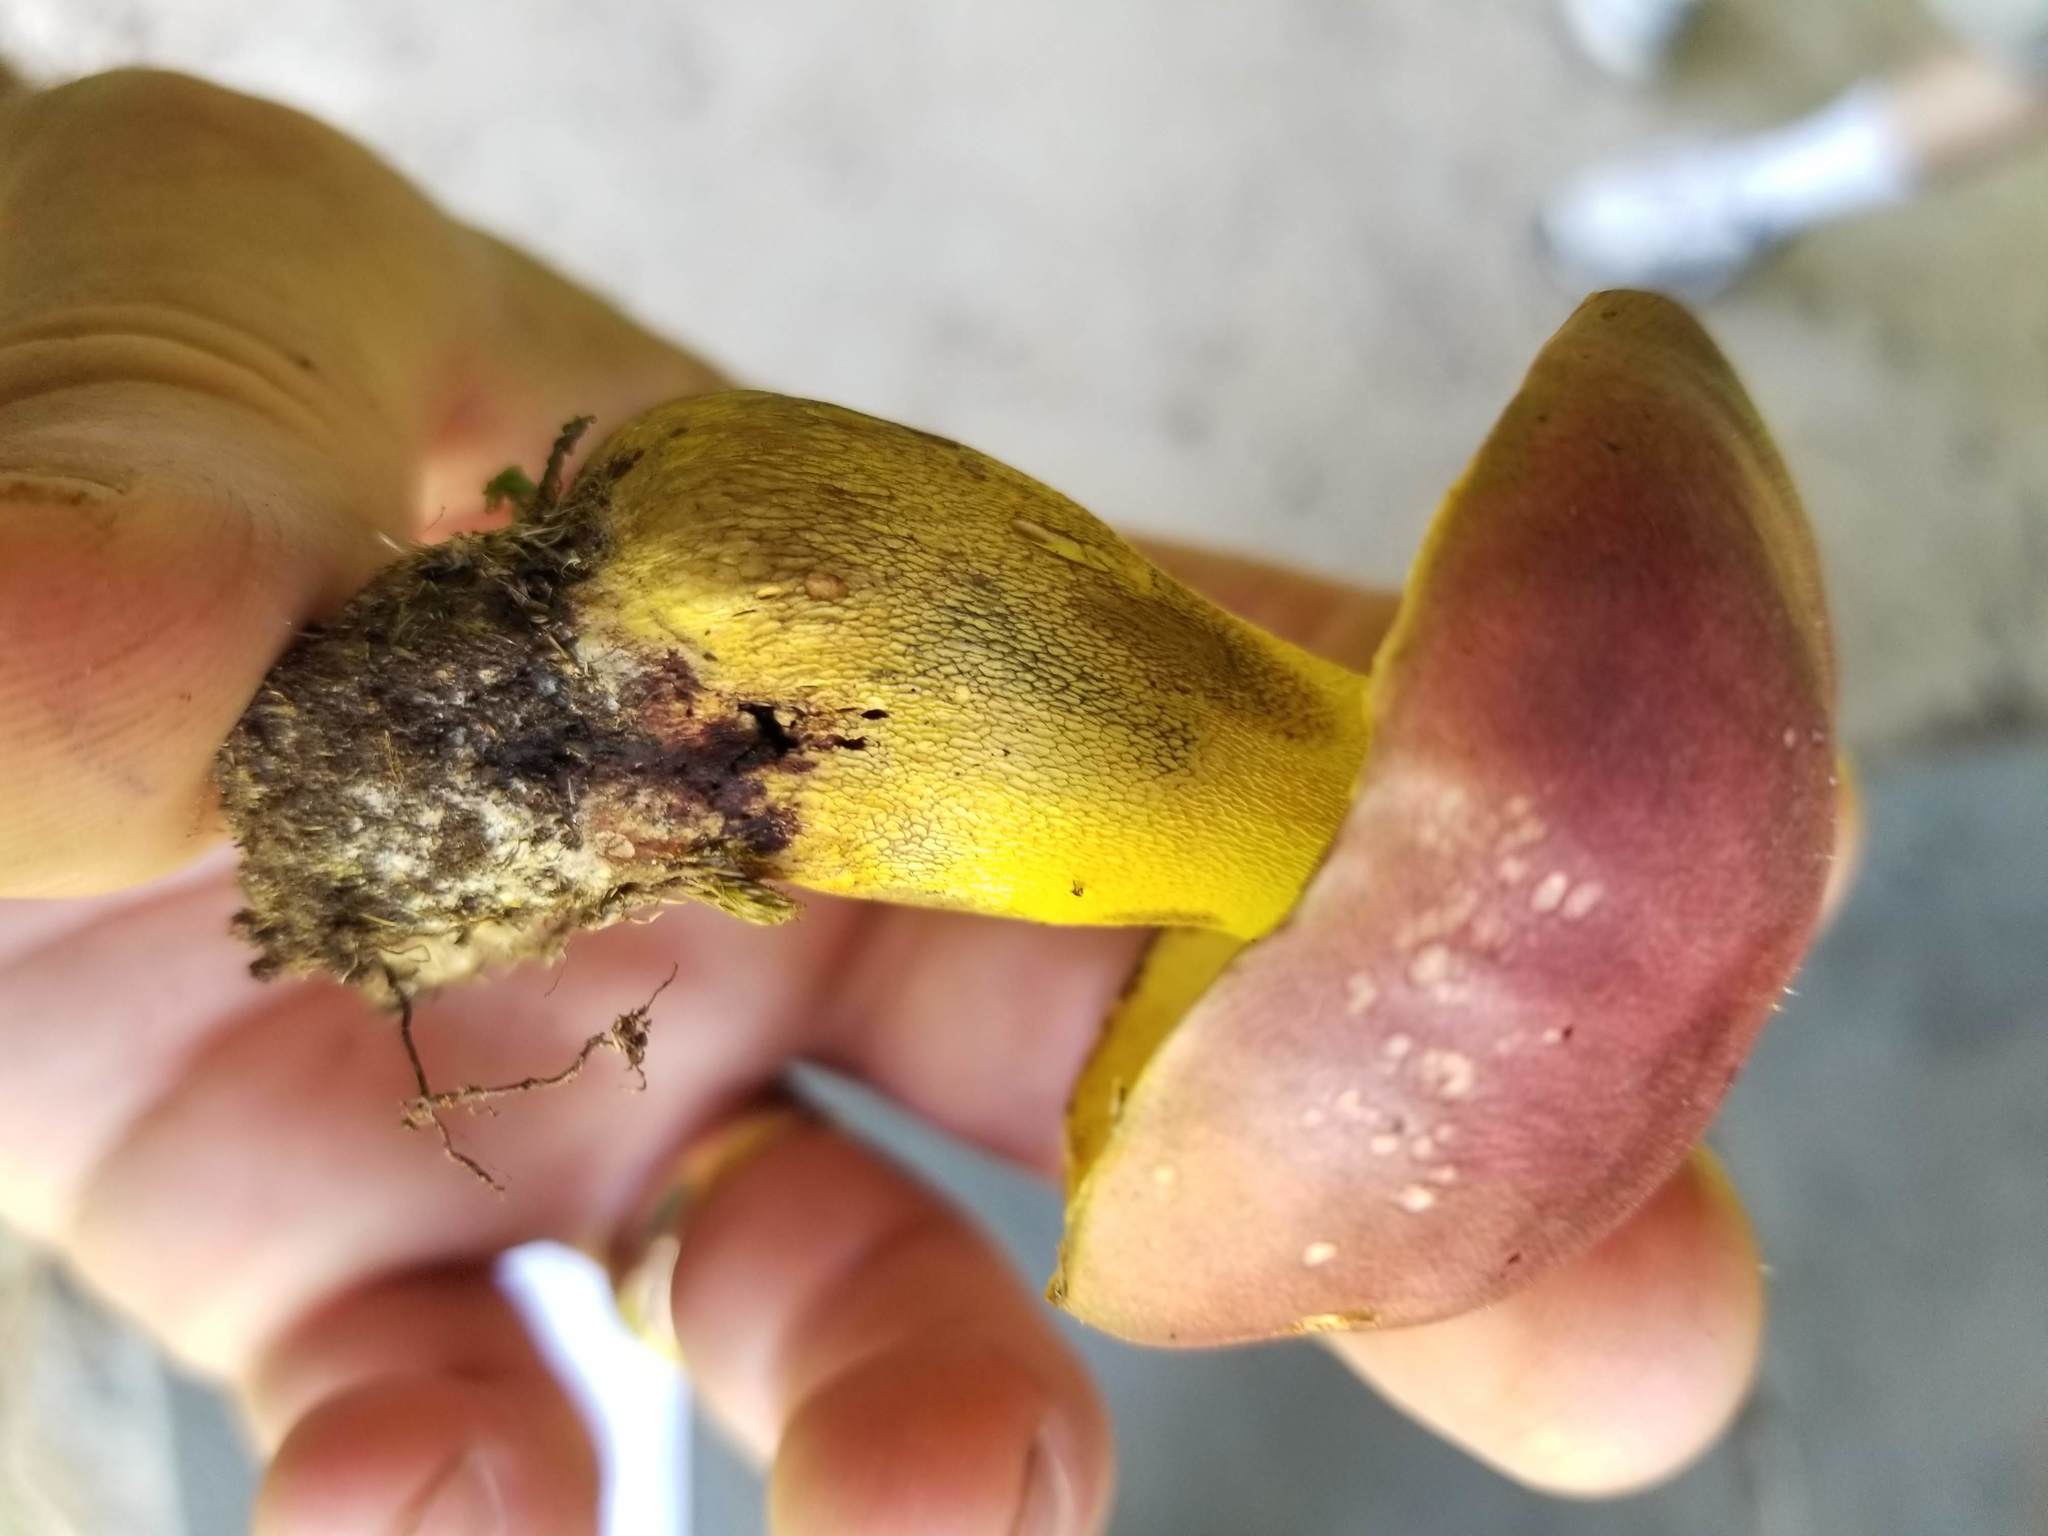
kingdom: Fungi
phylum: Basidiomycota
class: Agaricomycetes
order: Boletales
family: Boletaceae
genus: Butyriboletus
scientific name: Butyriboletus roseopurpureus
